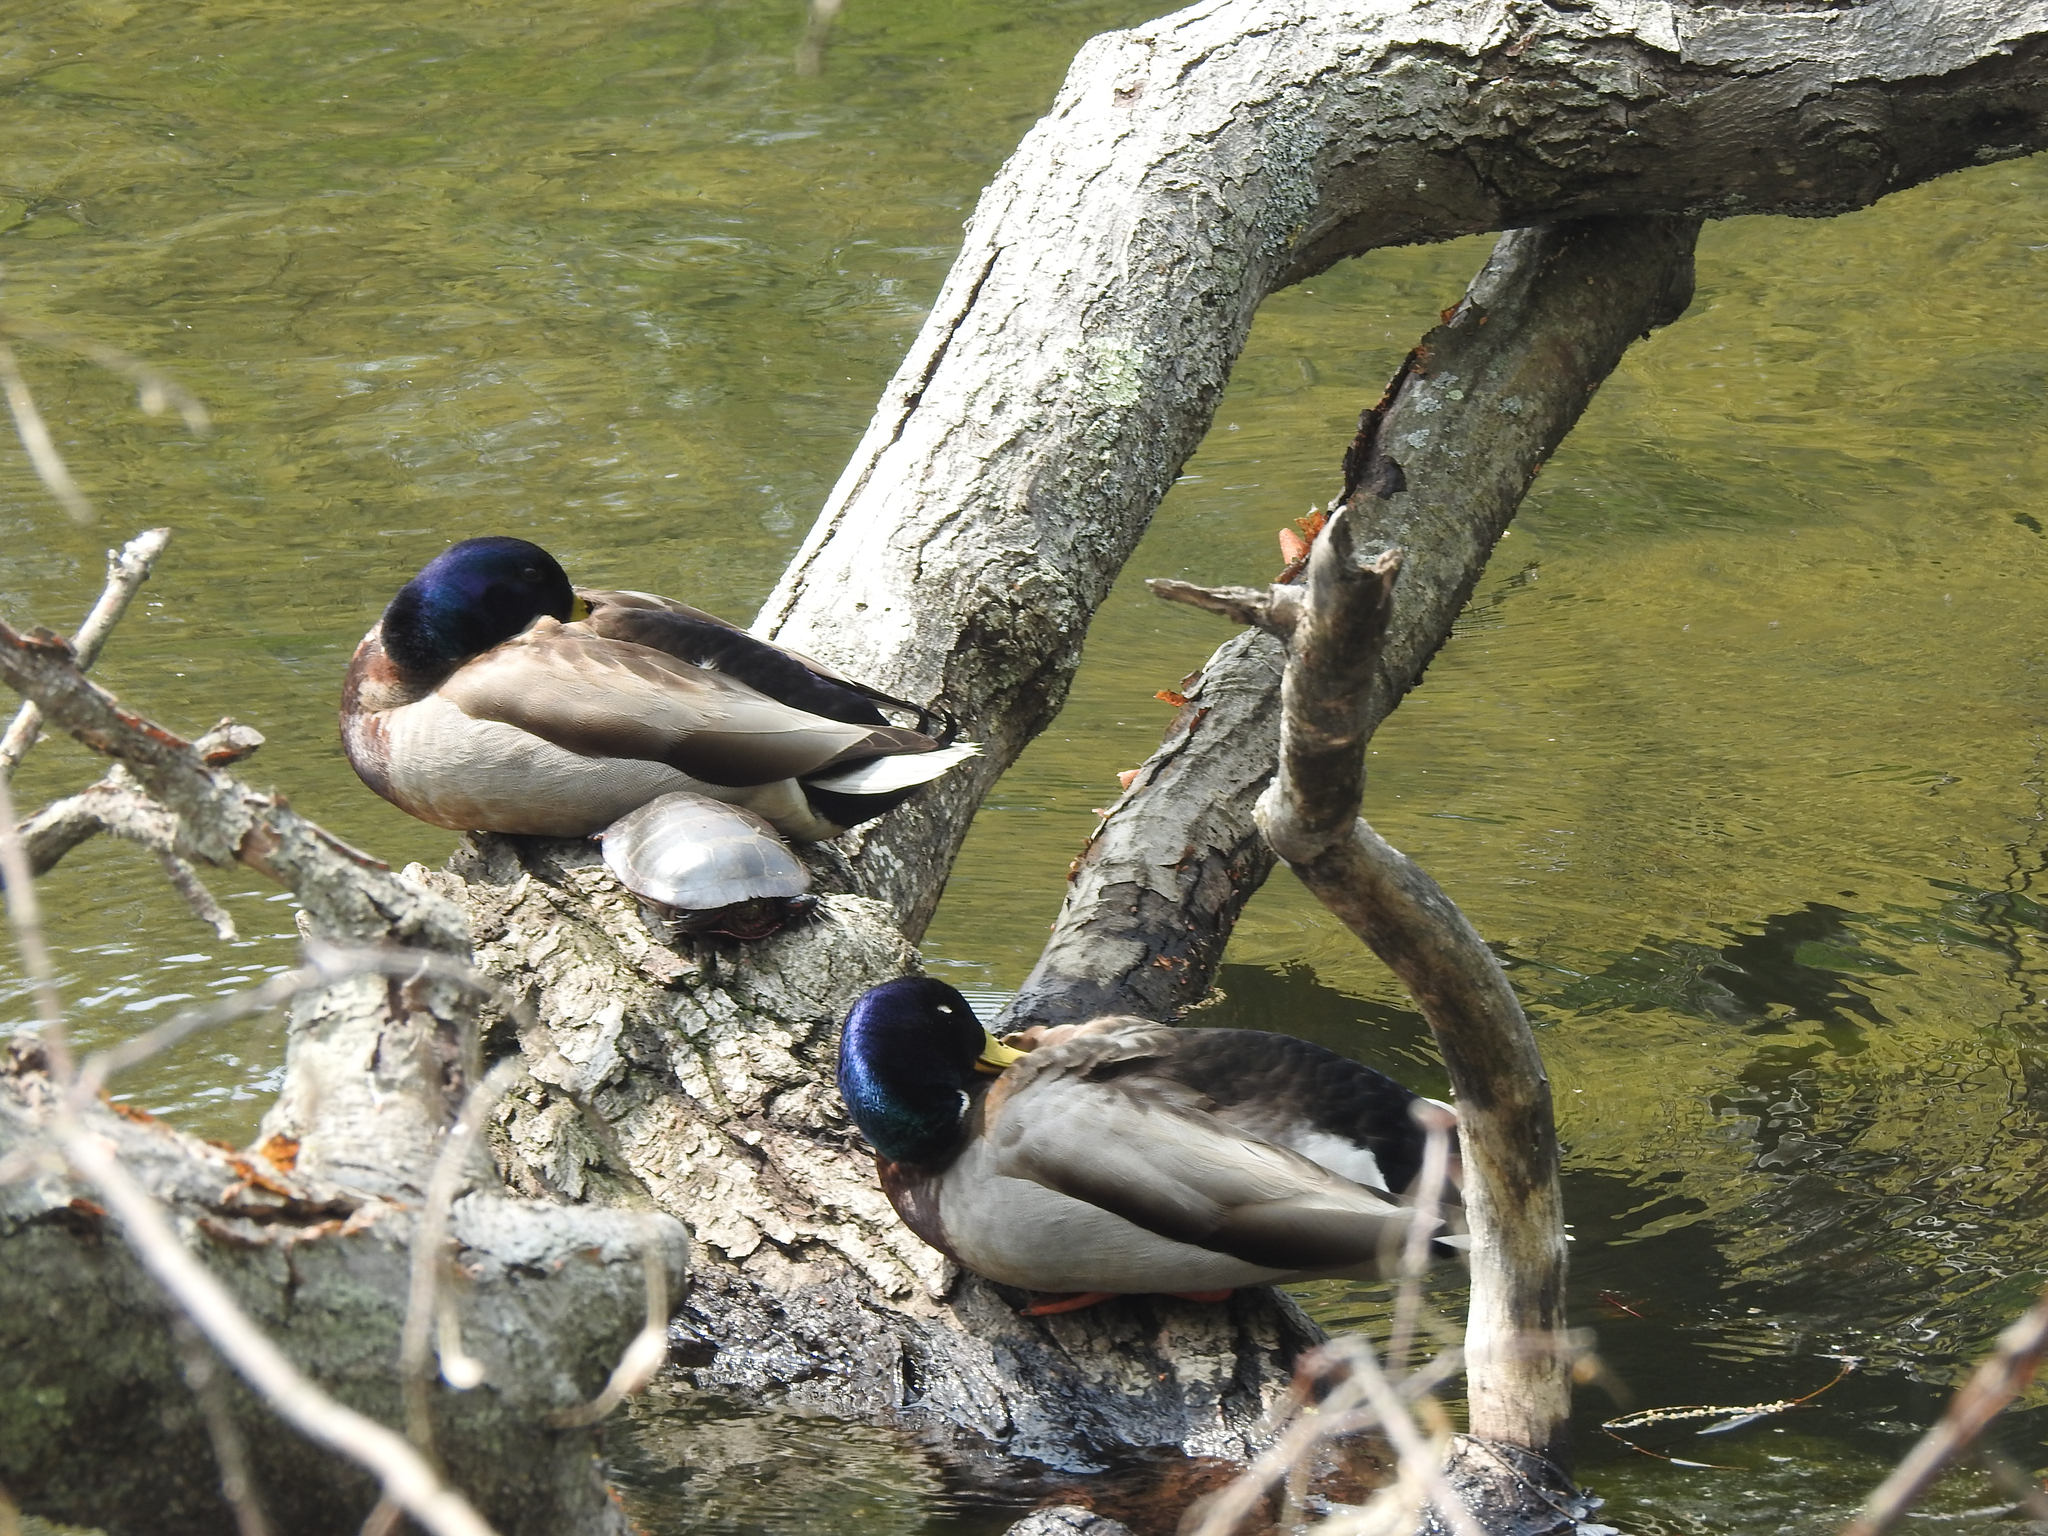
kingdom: Animalia
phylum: Chordata
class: Aves
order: Anseriformes
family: Anatidae
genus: Anas
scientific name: Anas platyrhynchos
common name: Mallard
